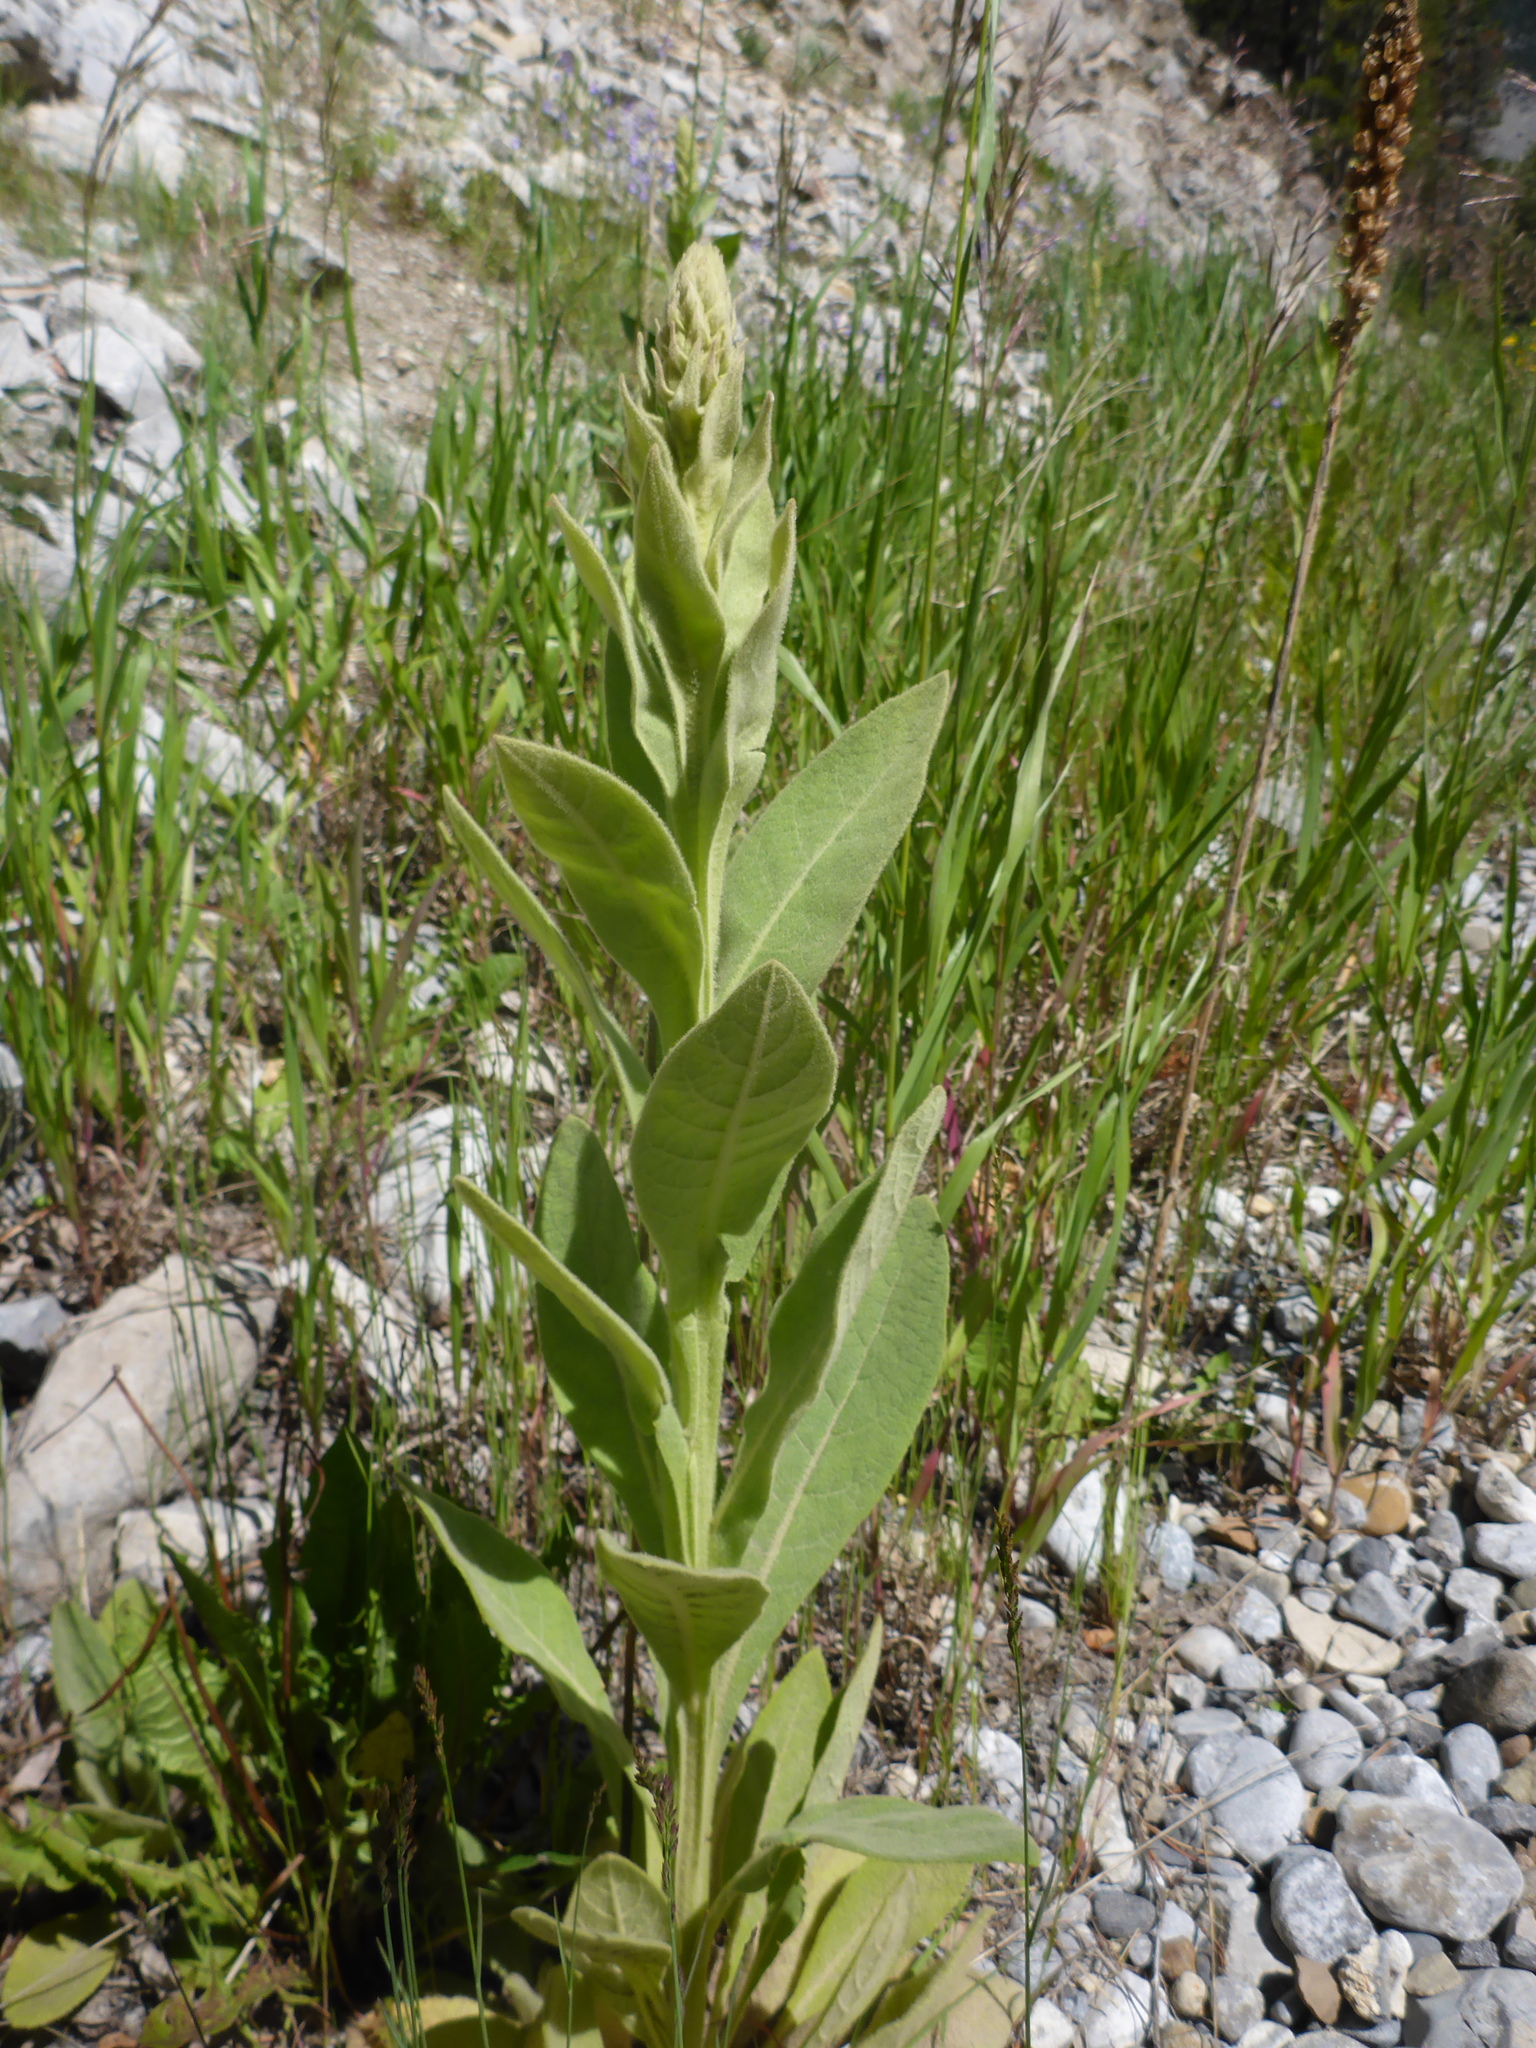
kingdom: Plantae
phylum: Tracheophyta
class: Magnoliopsida
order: Lamiales
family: Scrophulariaceae
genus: Verbascum
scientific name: Verbascum thapsus
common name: Common mullein
